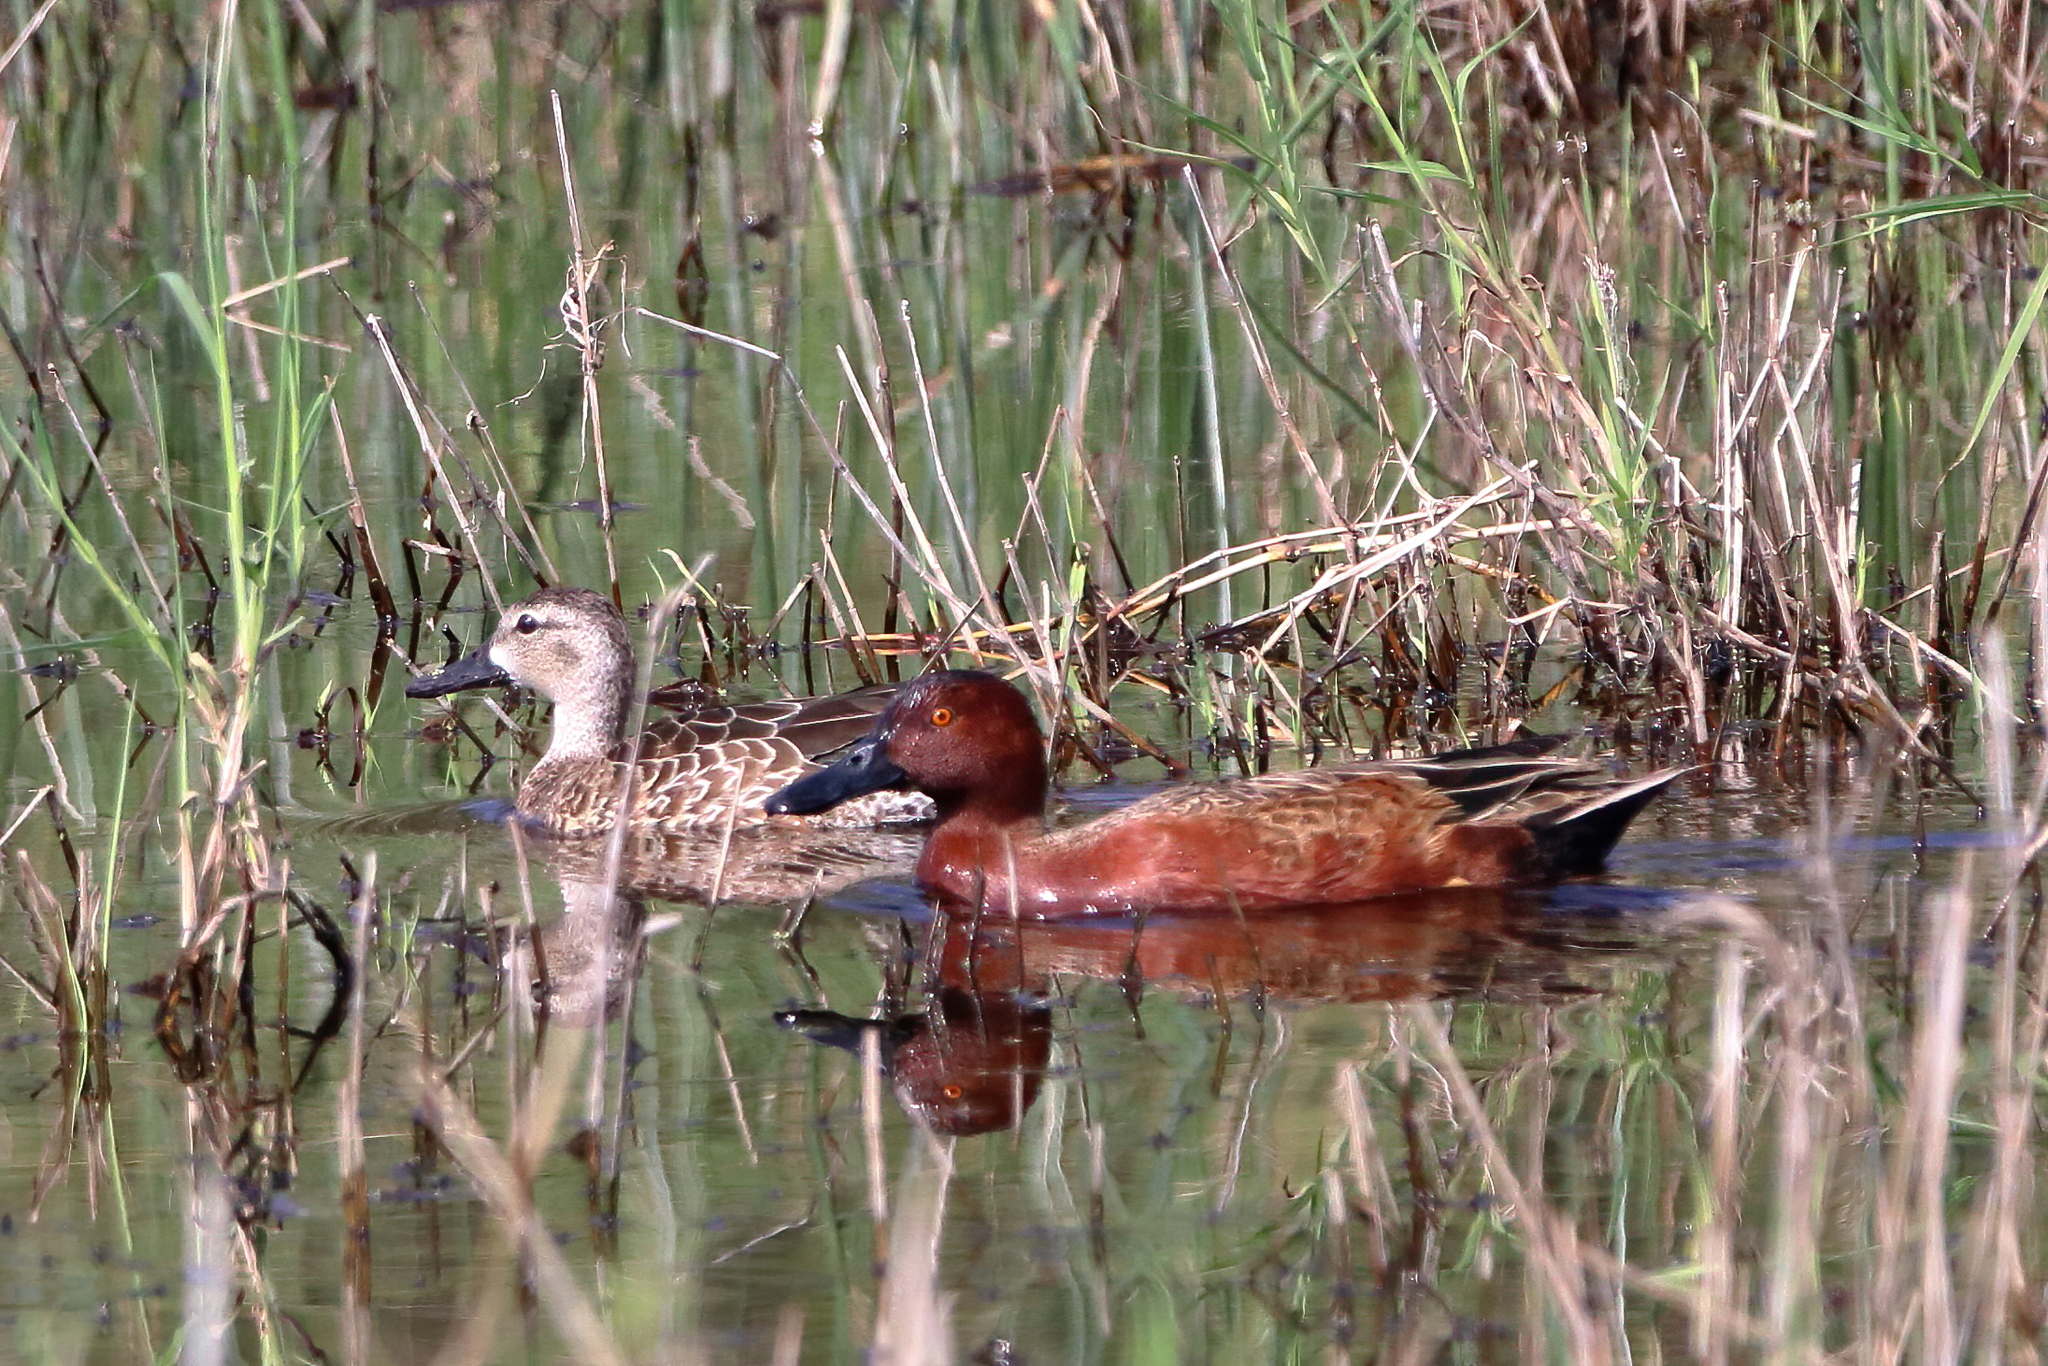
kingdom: Animalia
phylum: Chordata
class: Aves
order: Anseriformes
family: Anatidae
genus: Spatula
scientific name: Spatula cyanoptera
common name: Cinnamon teal
